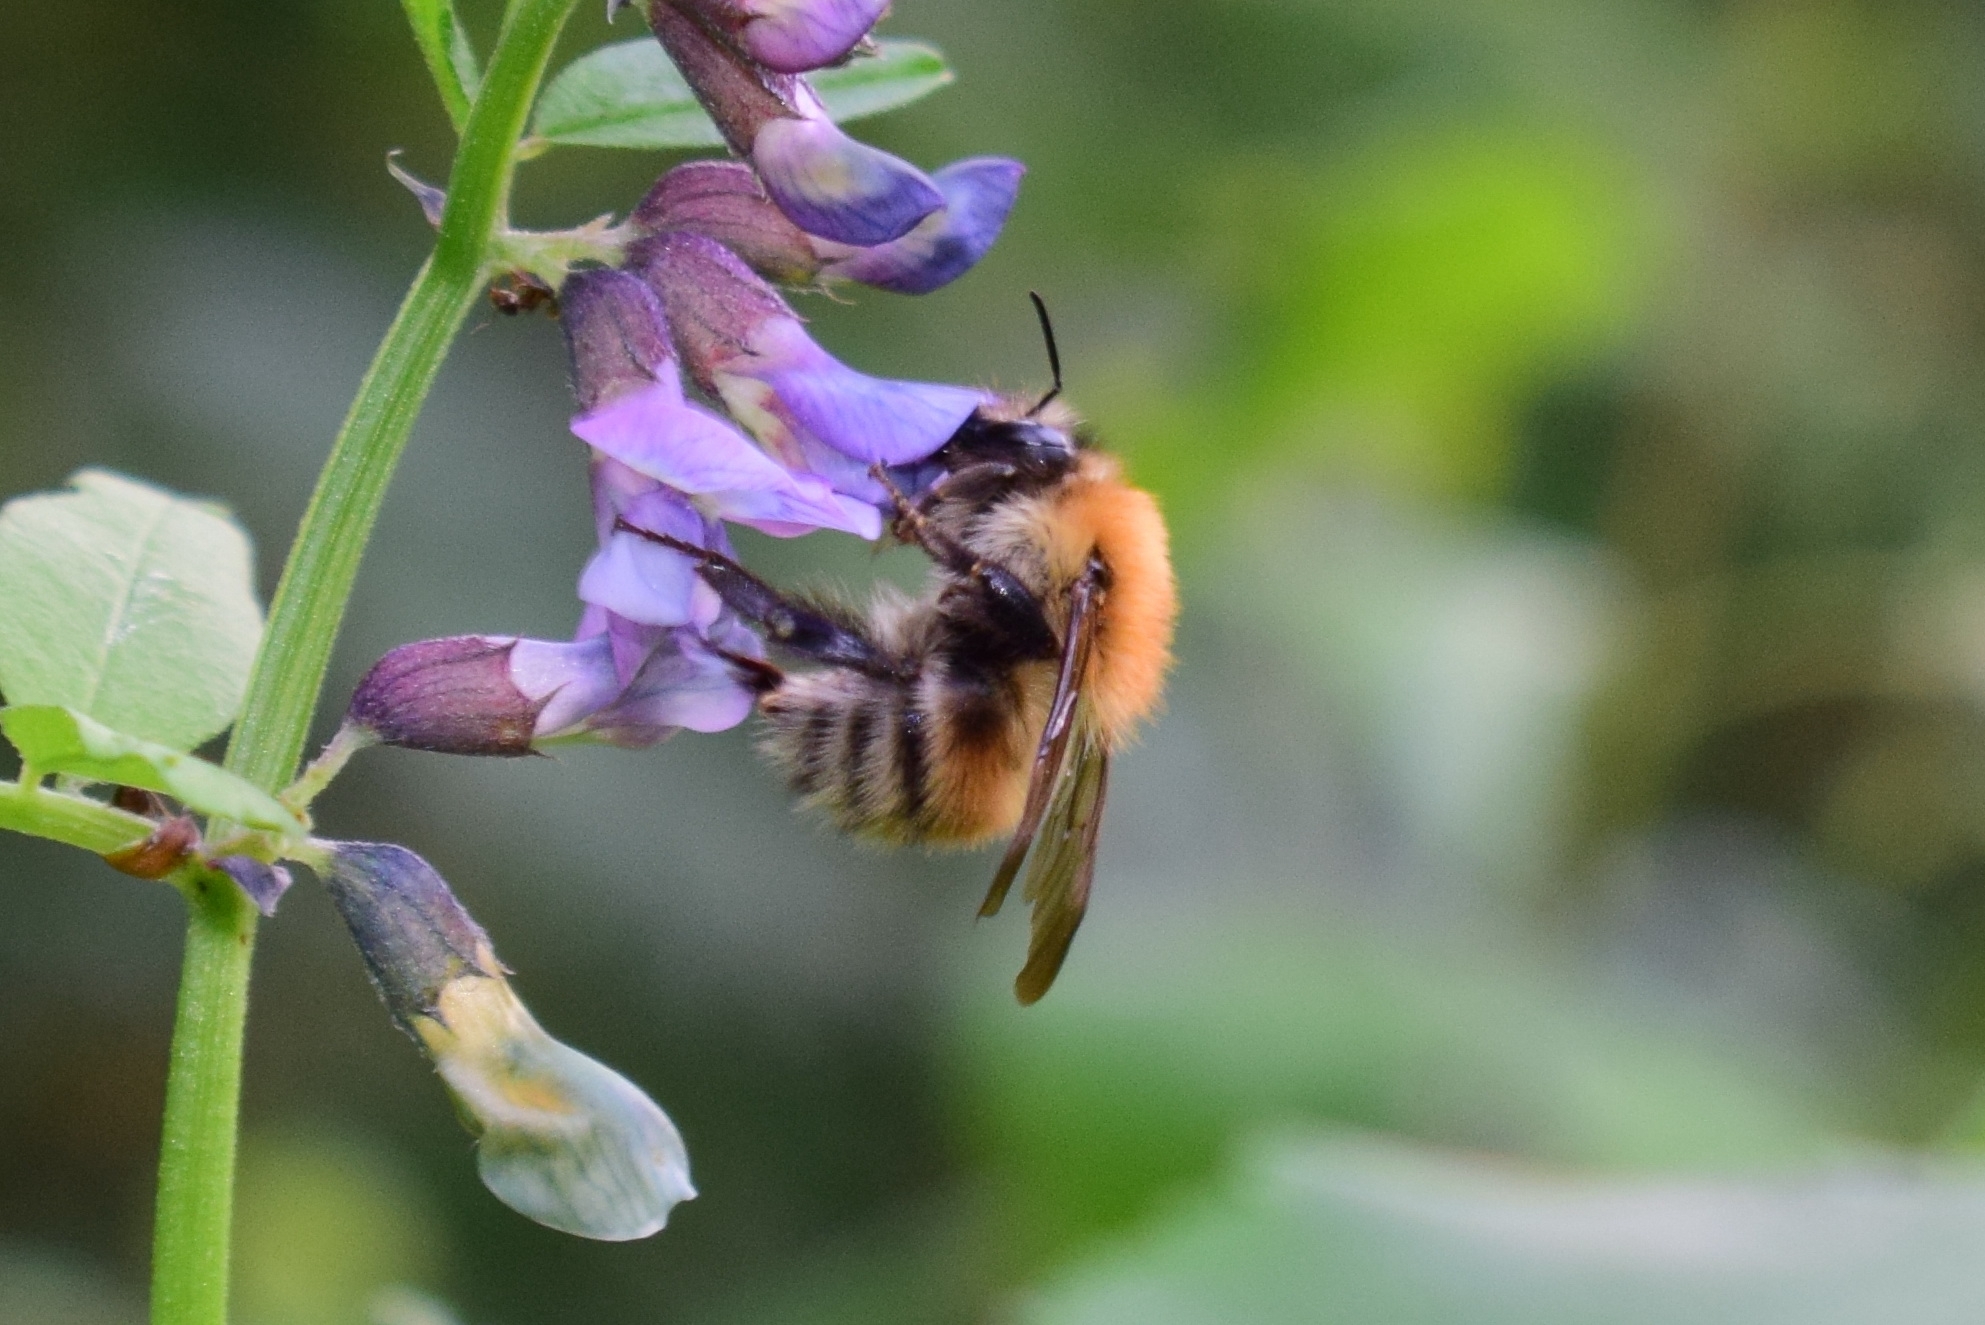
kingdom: Animalia
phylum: Arthropoda
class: Insecta
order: Hymenoptera
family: Apidae
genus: Bombus
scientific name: Bombus schrencki
